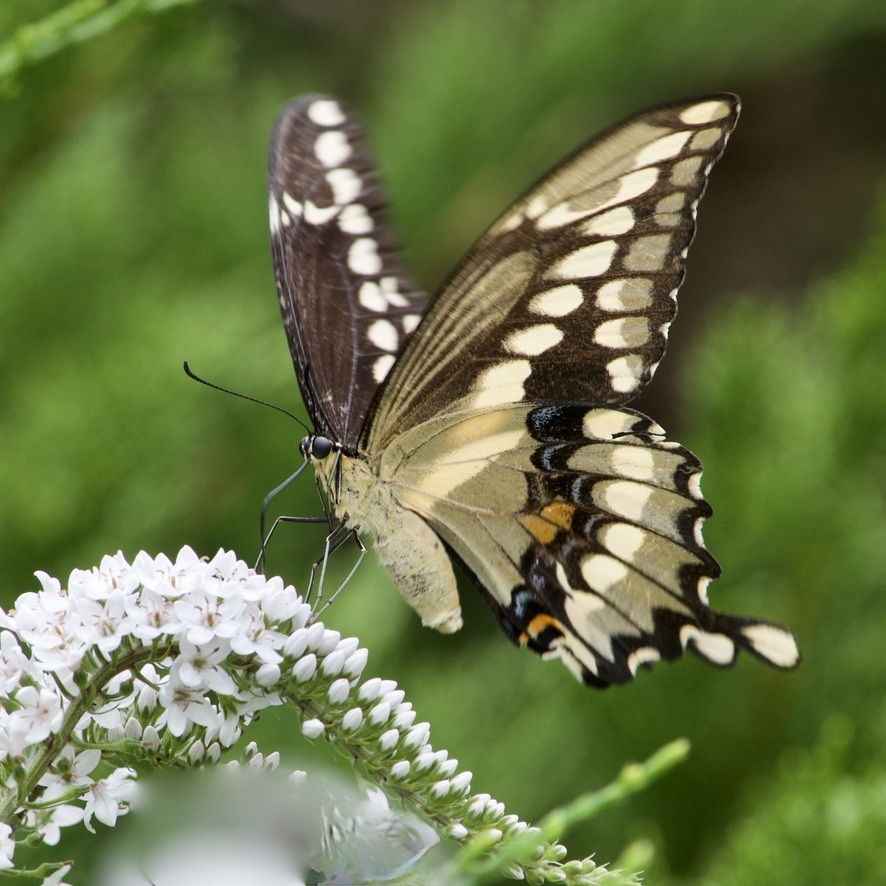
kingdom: Animalia
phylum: Arthropoda
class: Insecta
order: Lepidoptera
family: Papilionidae
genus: Papilio
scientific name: Papilio cresphontes
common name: Giant swallowtail
